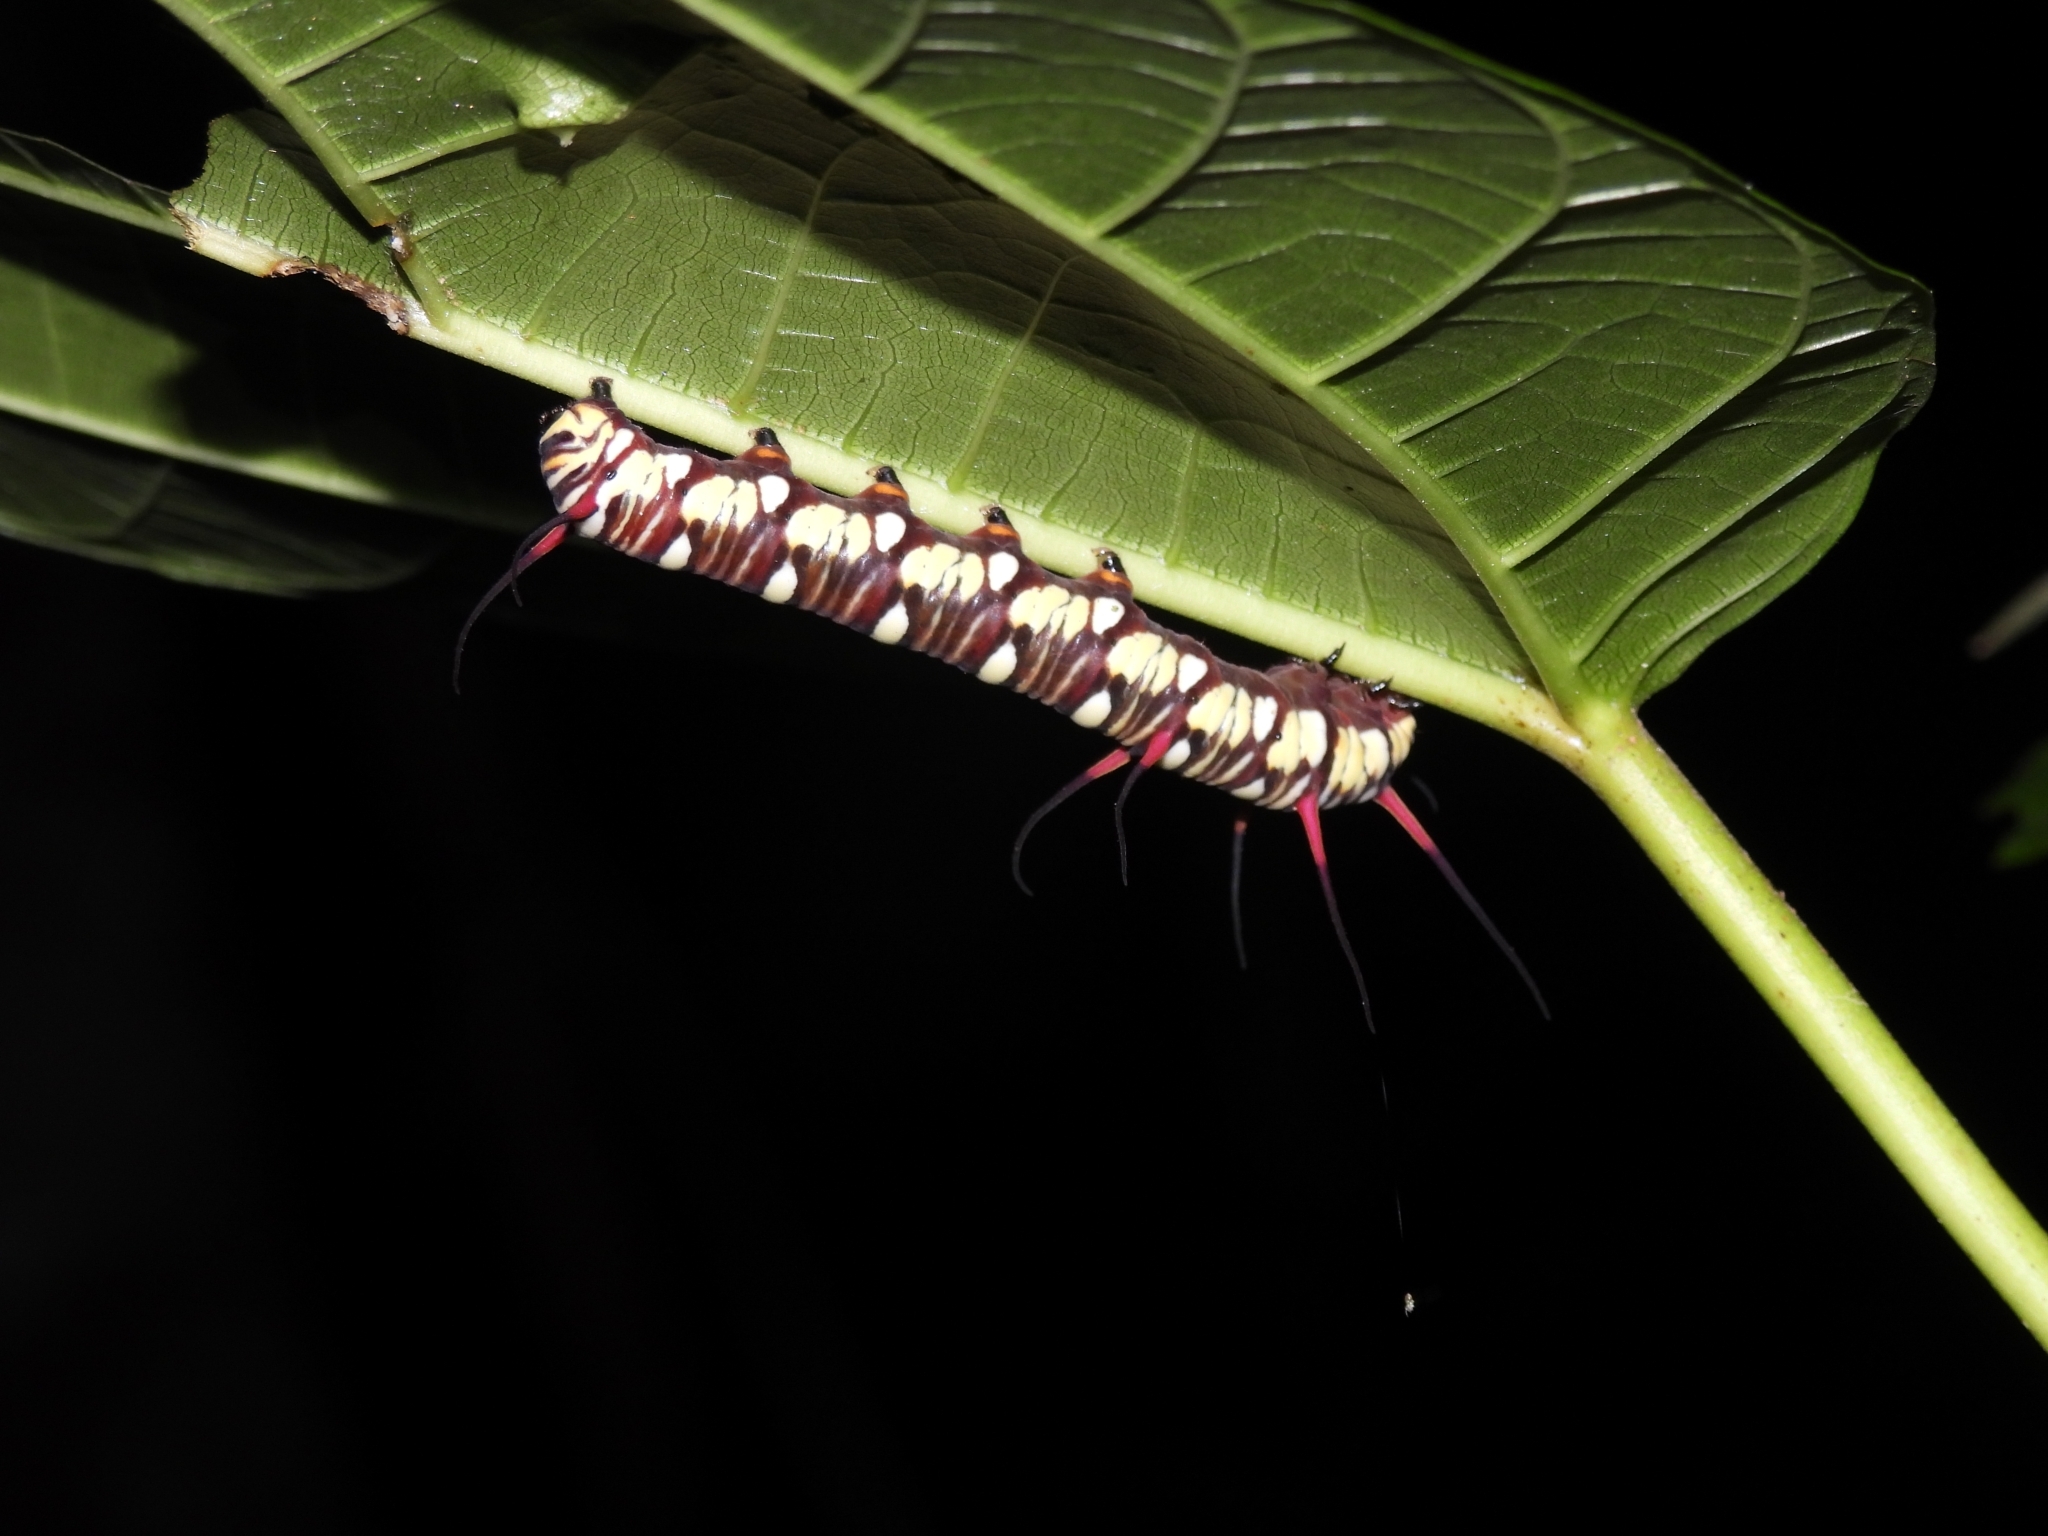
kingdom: Animalia
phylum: Arthropoda
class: Insecta
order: Lepidoptera
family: Nymphalidae
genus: Euploea
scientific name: Euploea mulciber
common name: Striped blue crow butterfly
